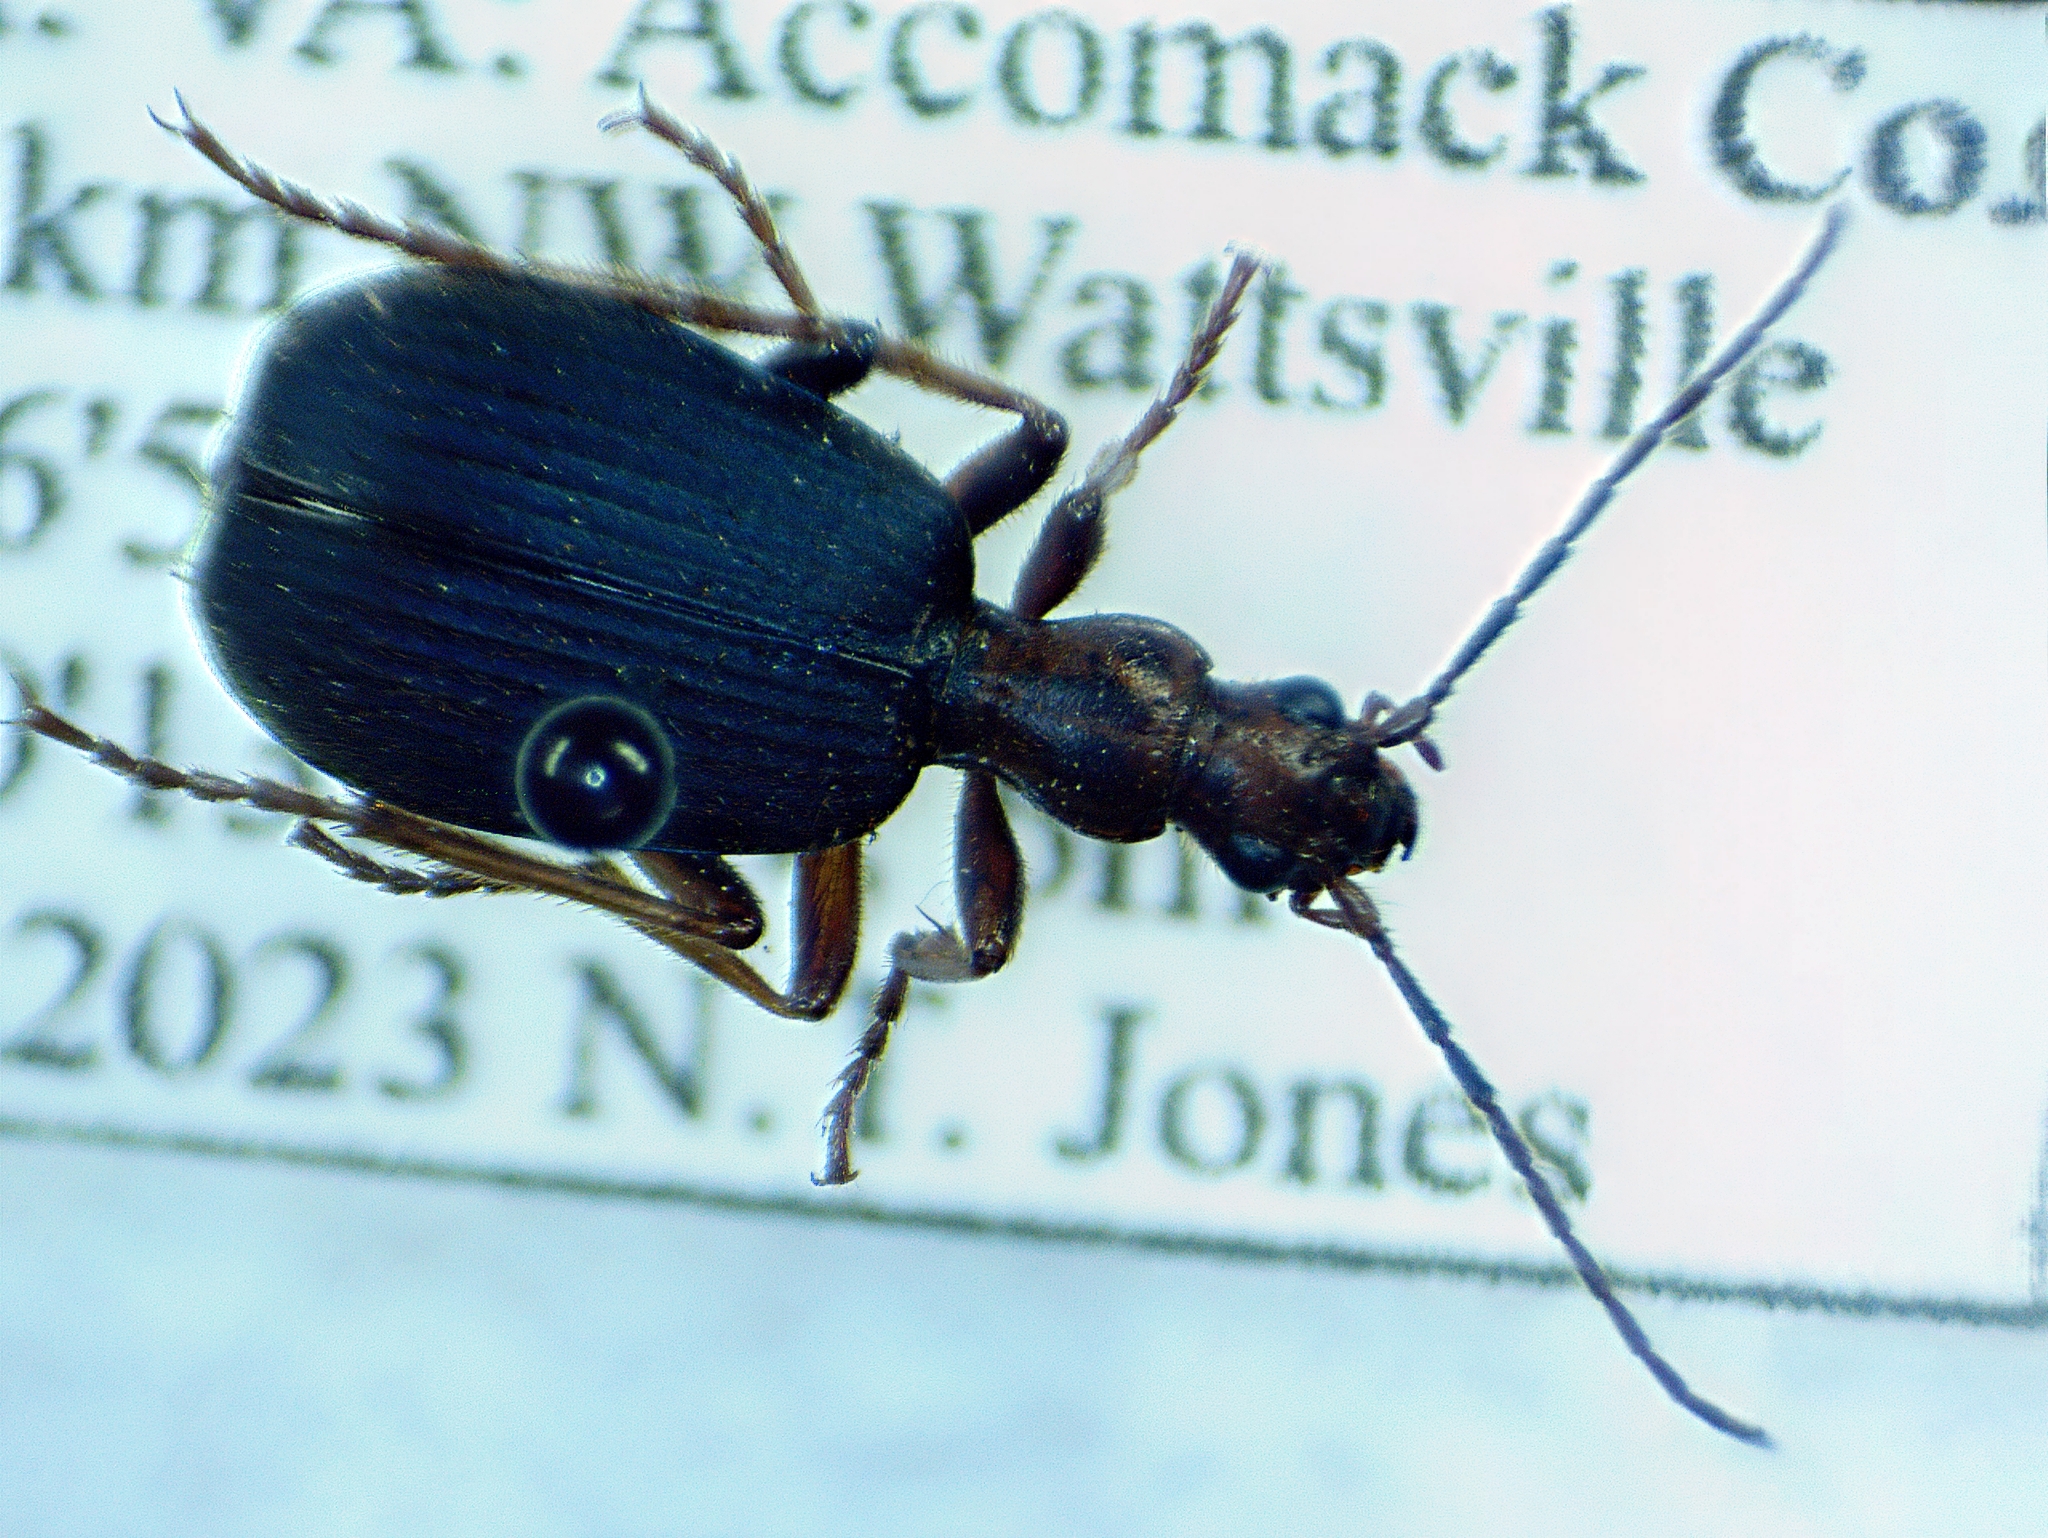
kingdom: Animalia
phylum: Arthropoda
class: Insecta
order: Coleoptera
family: Carabidae
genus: Brachinus
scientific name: Brachinus tenuicollis
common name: Narrow-necked little bombardier beetle
